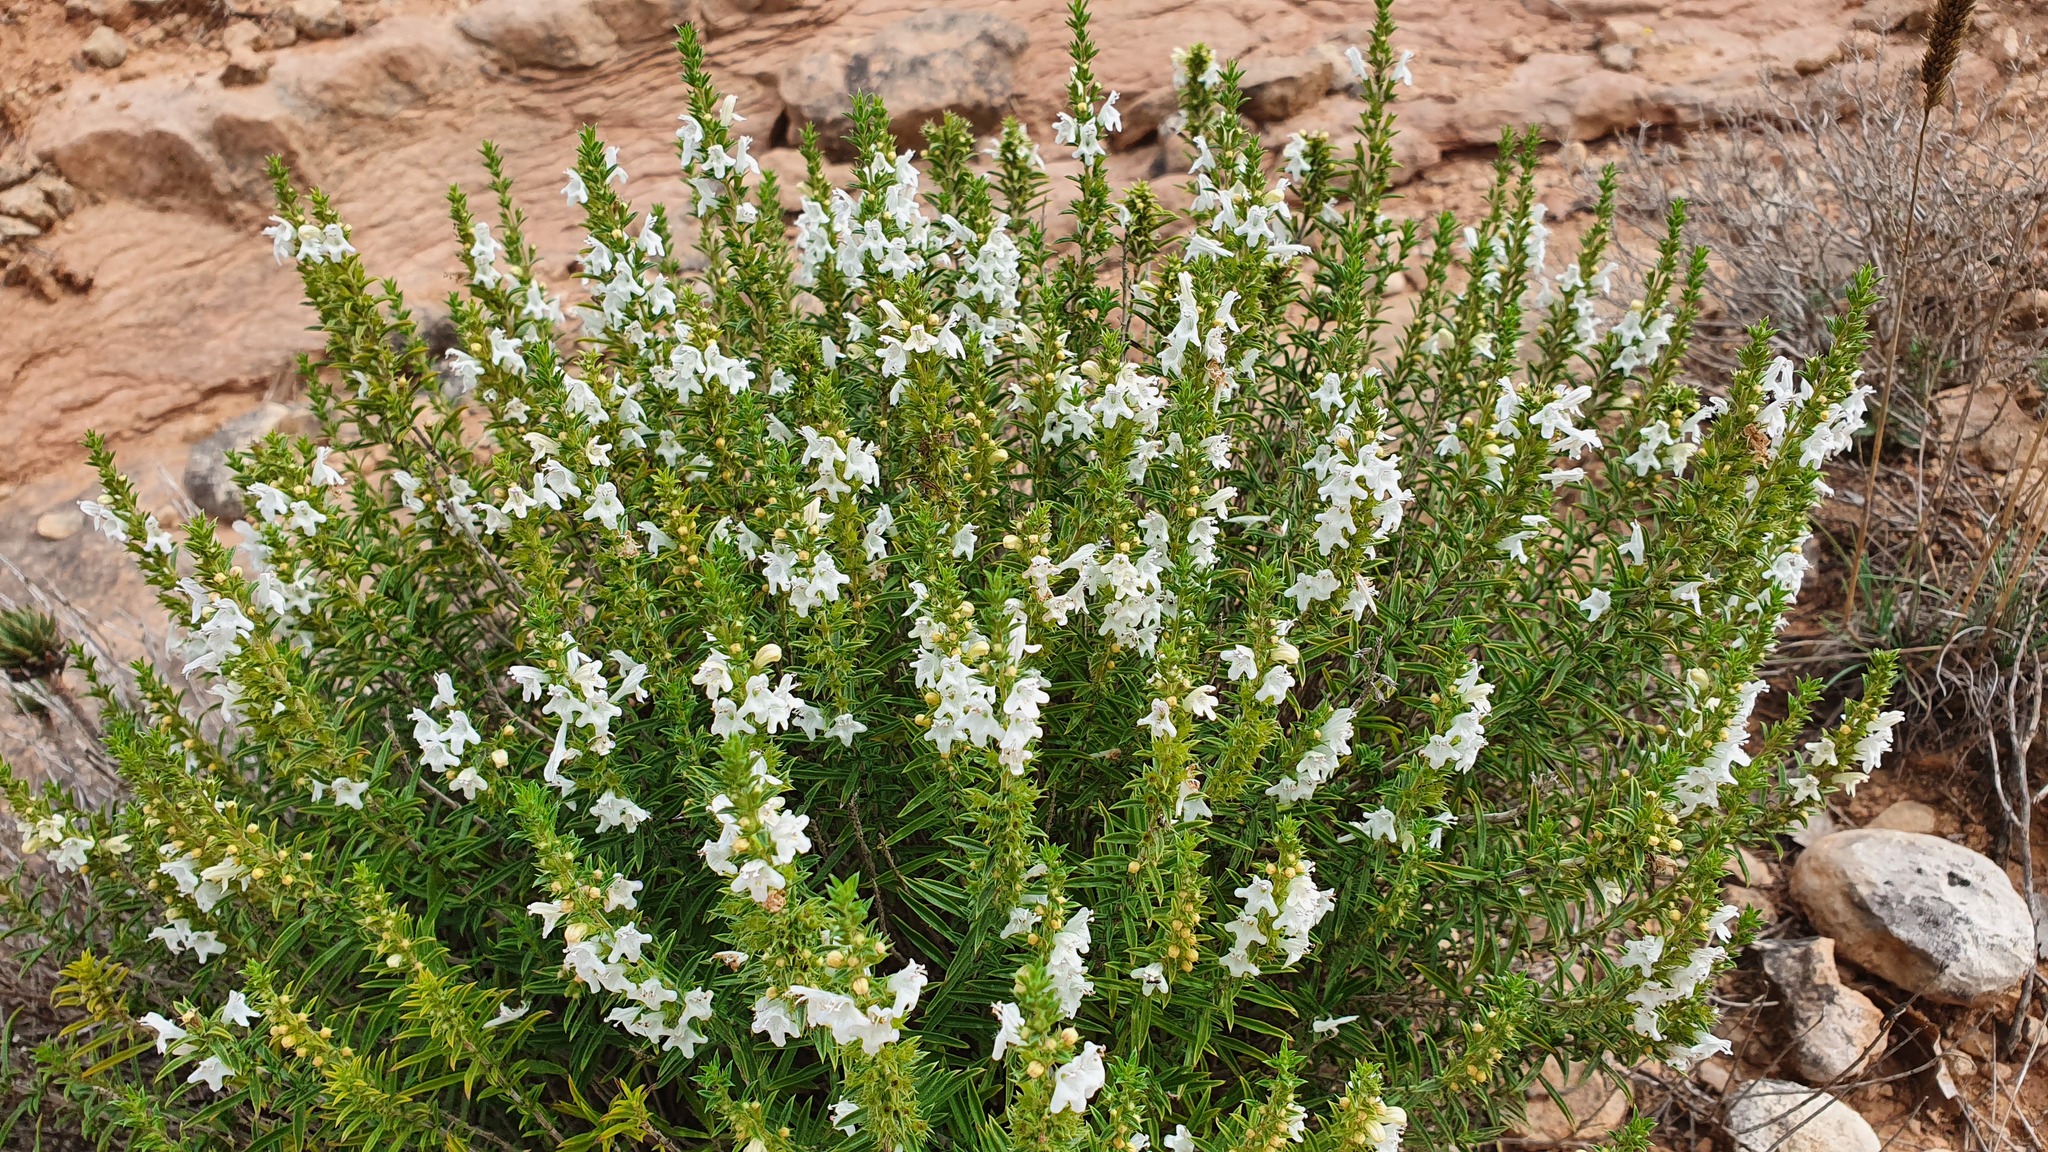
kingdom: Plantae
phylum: Tracheophyta
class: Magnoliopsida
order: Lamiales
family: Lamiaceae
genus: Satureja
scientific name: Satureja montana
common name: Winter savory
